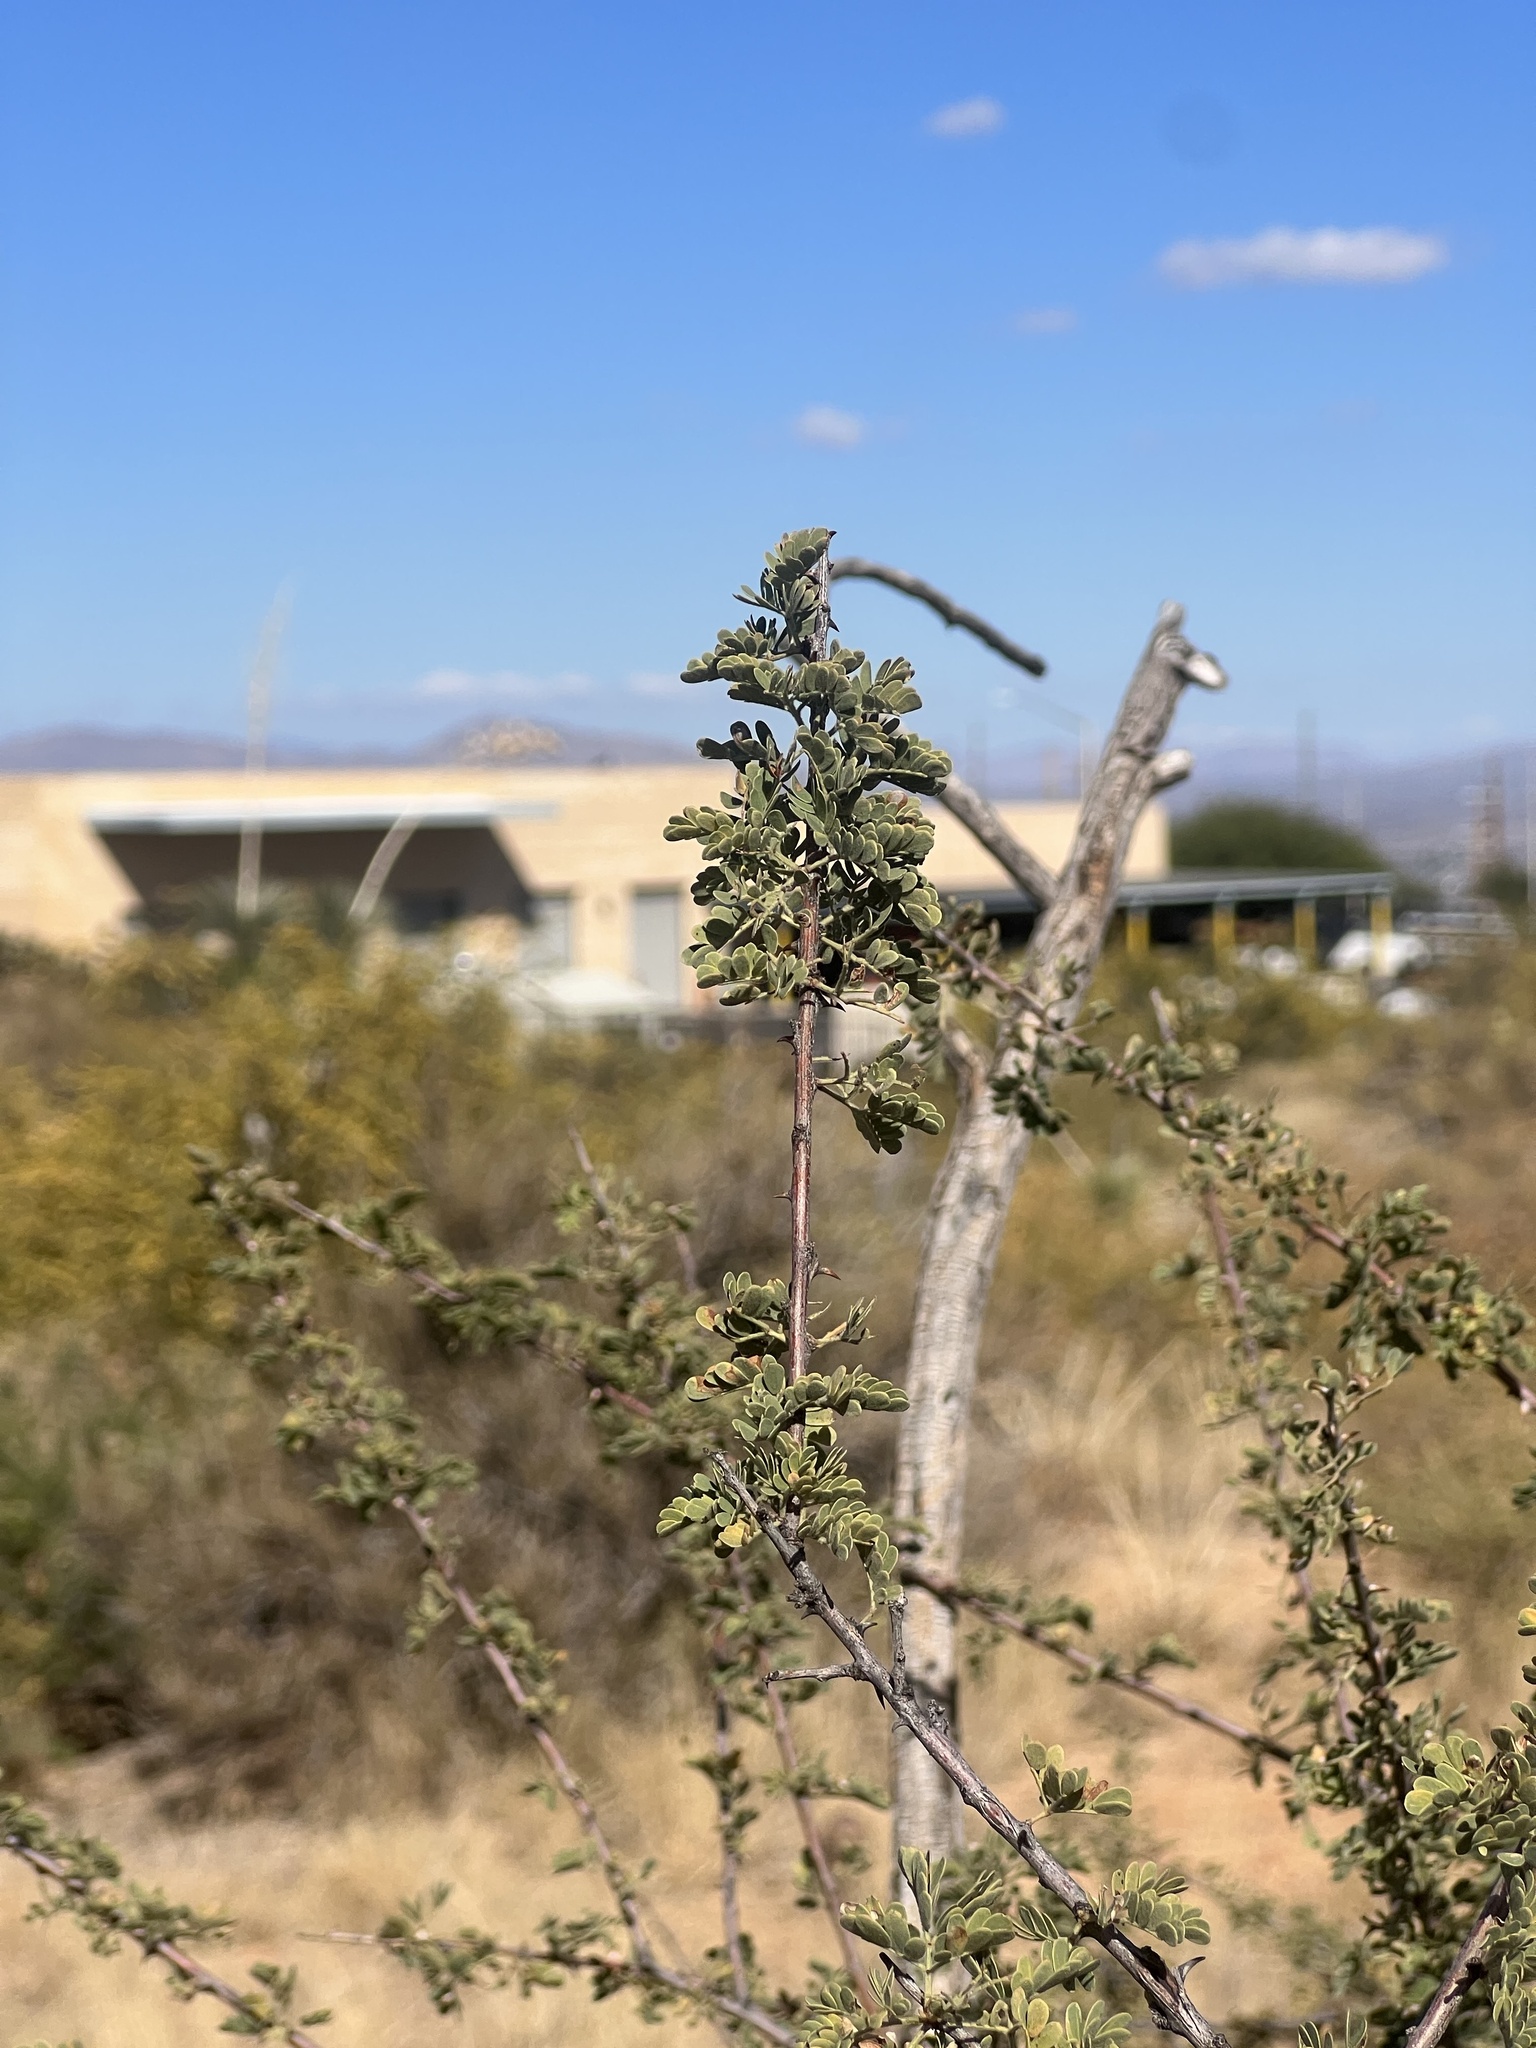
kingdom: Plantae
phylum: Tracheophyta
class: Magnoliopsida
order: Fabales
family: Fabaceae
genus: Senegalia
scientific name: Senegalia greggii
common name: Texas-mimosa
